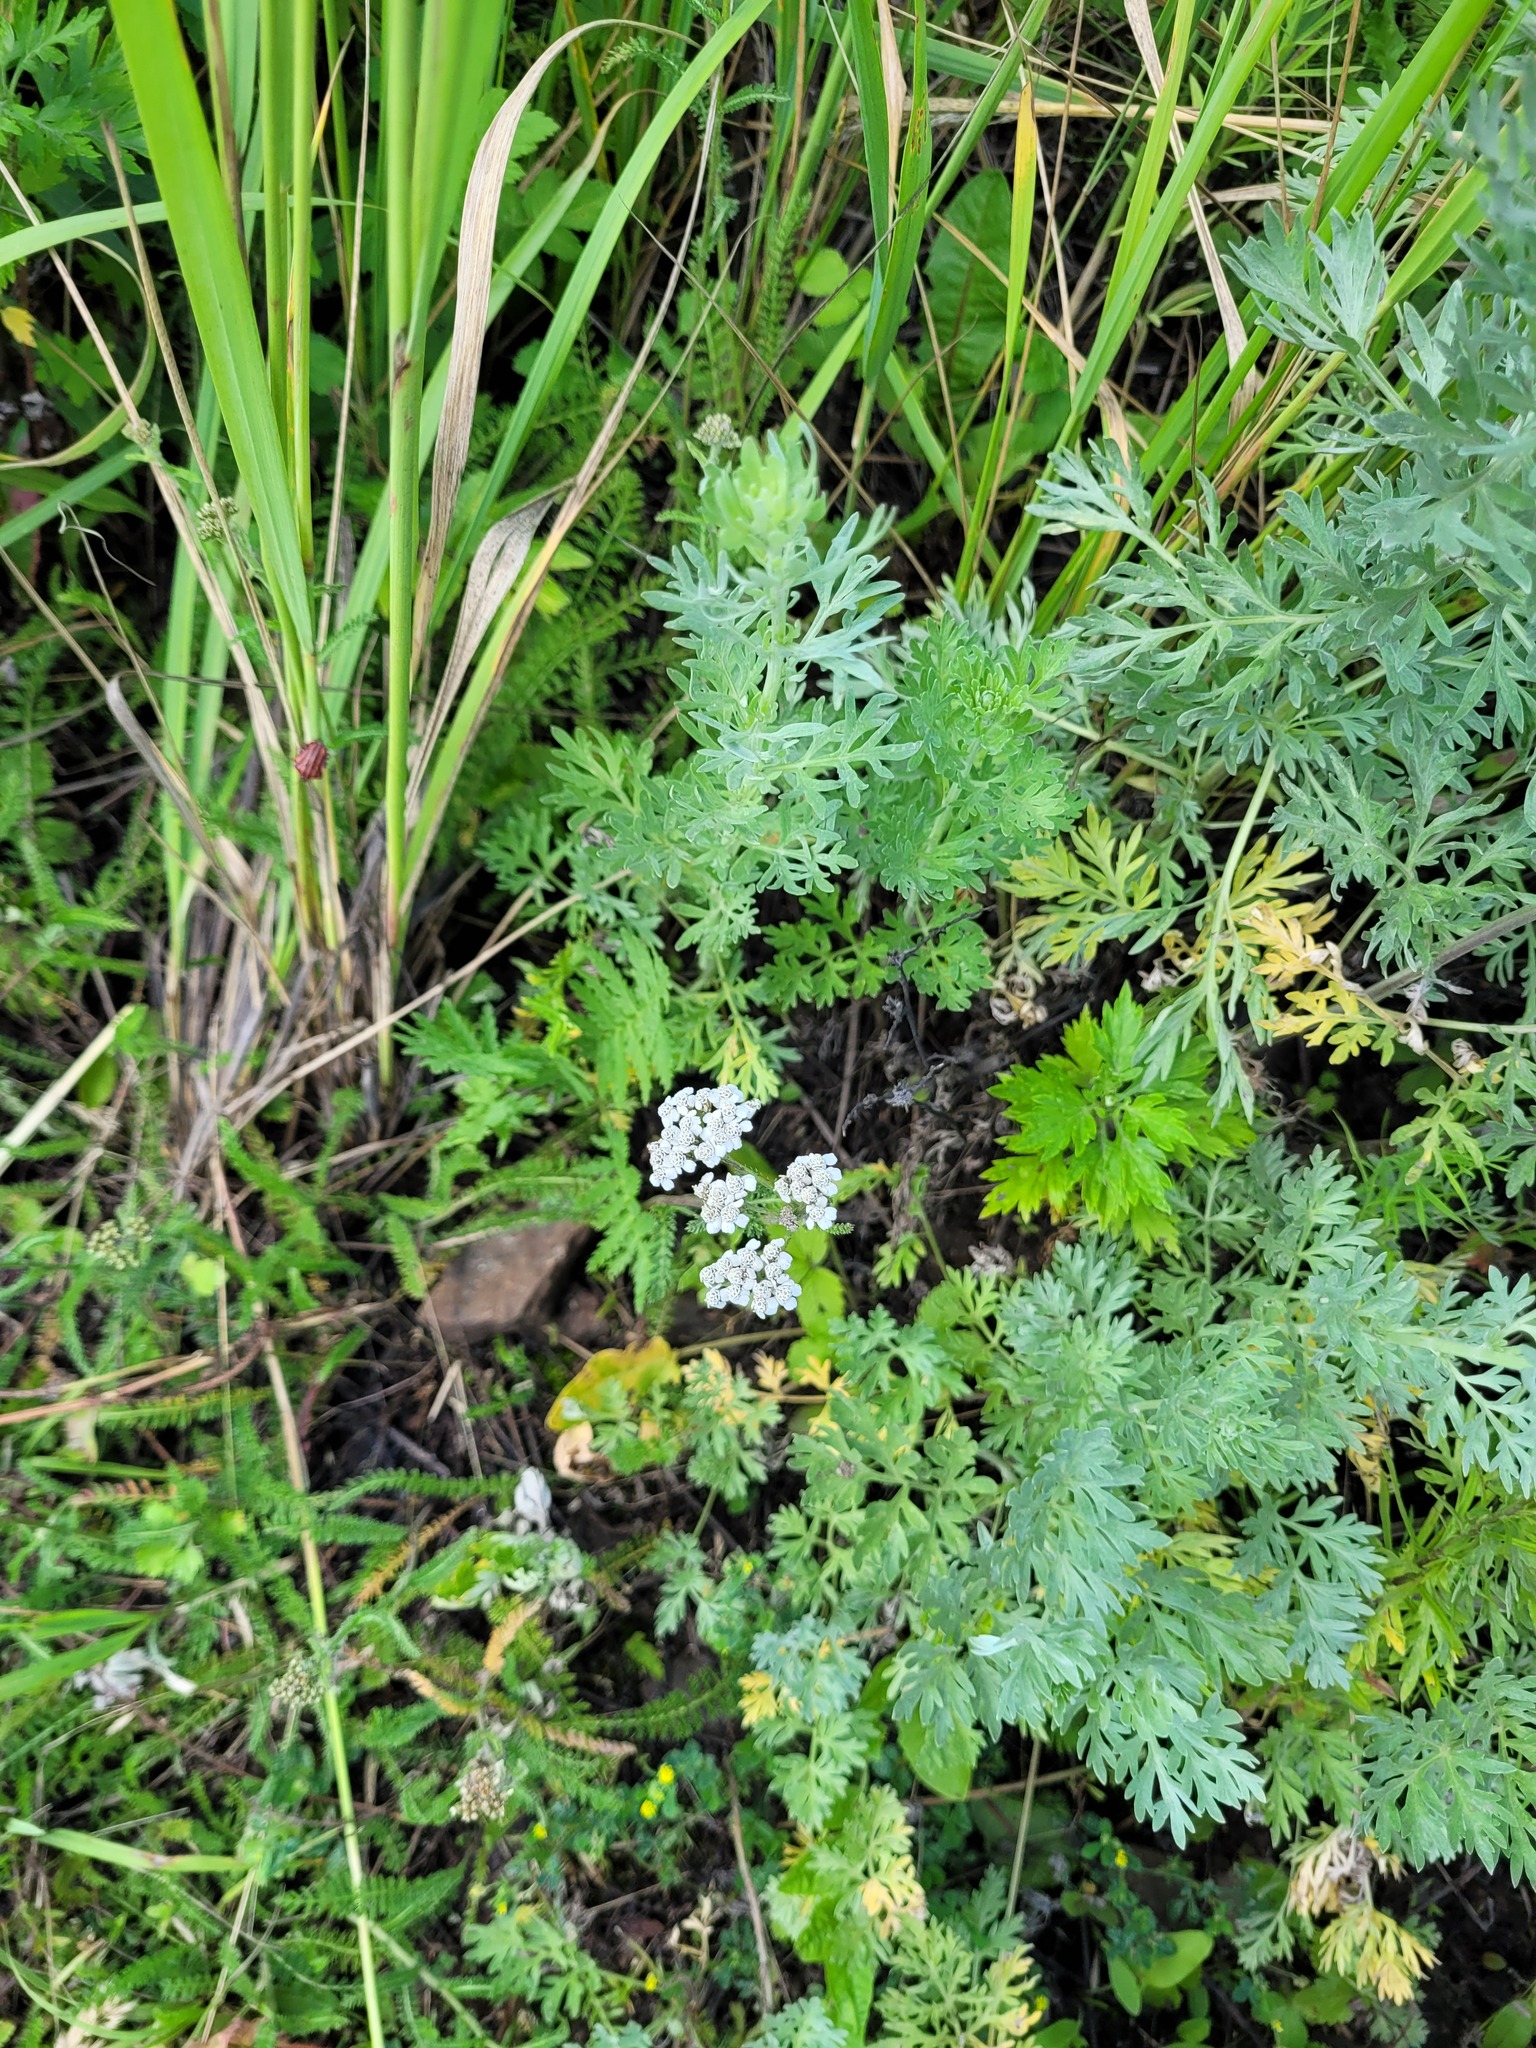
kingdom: Plantae
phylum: Tracheophyta
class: Magnoliopsida
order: Asterales
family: Asteraceae
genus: Achillea
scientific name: Achillea millefolium
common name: Yarrow
